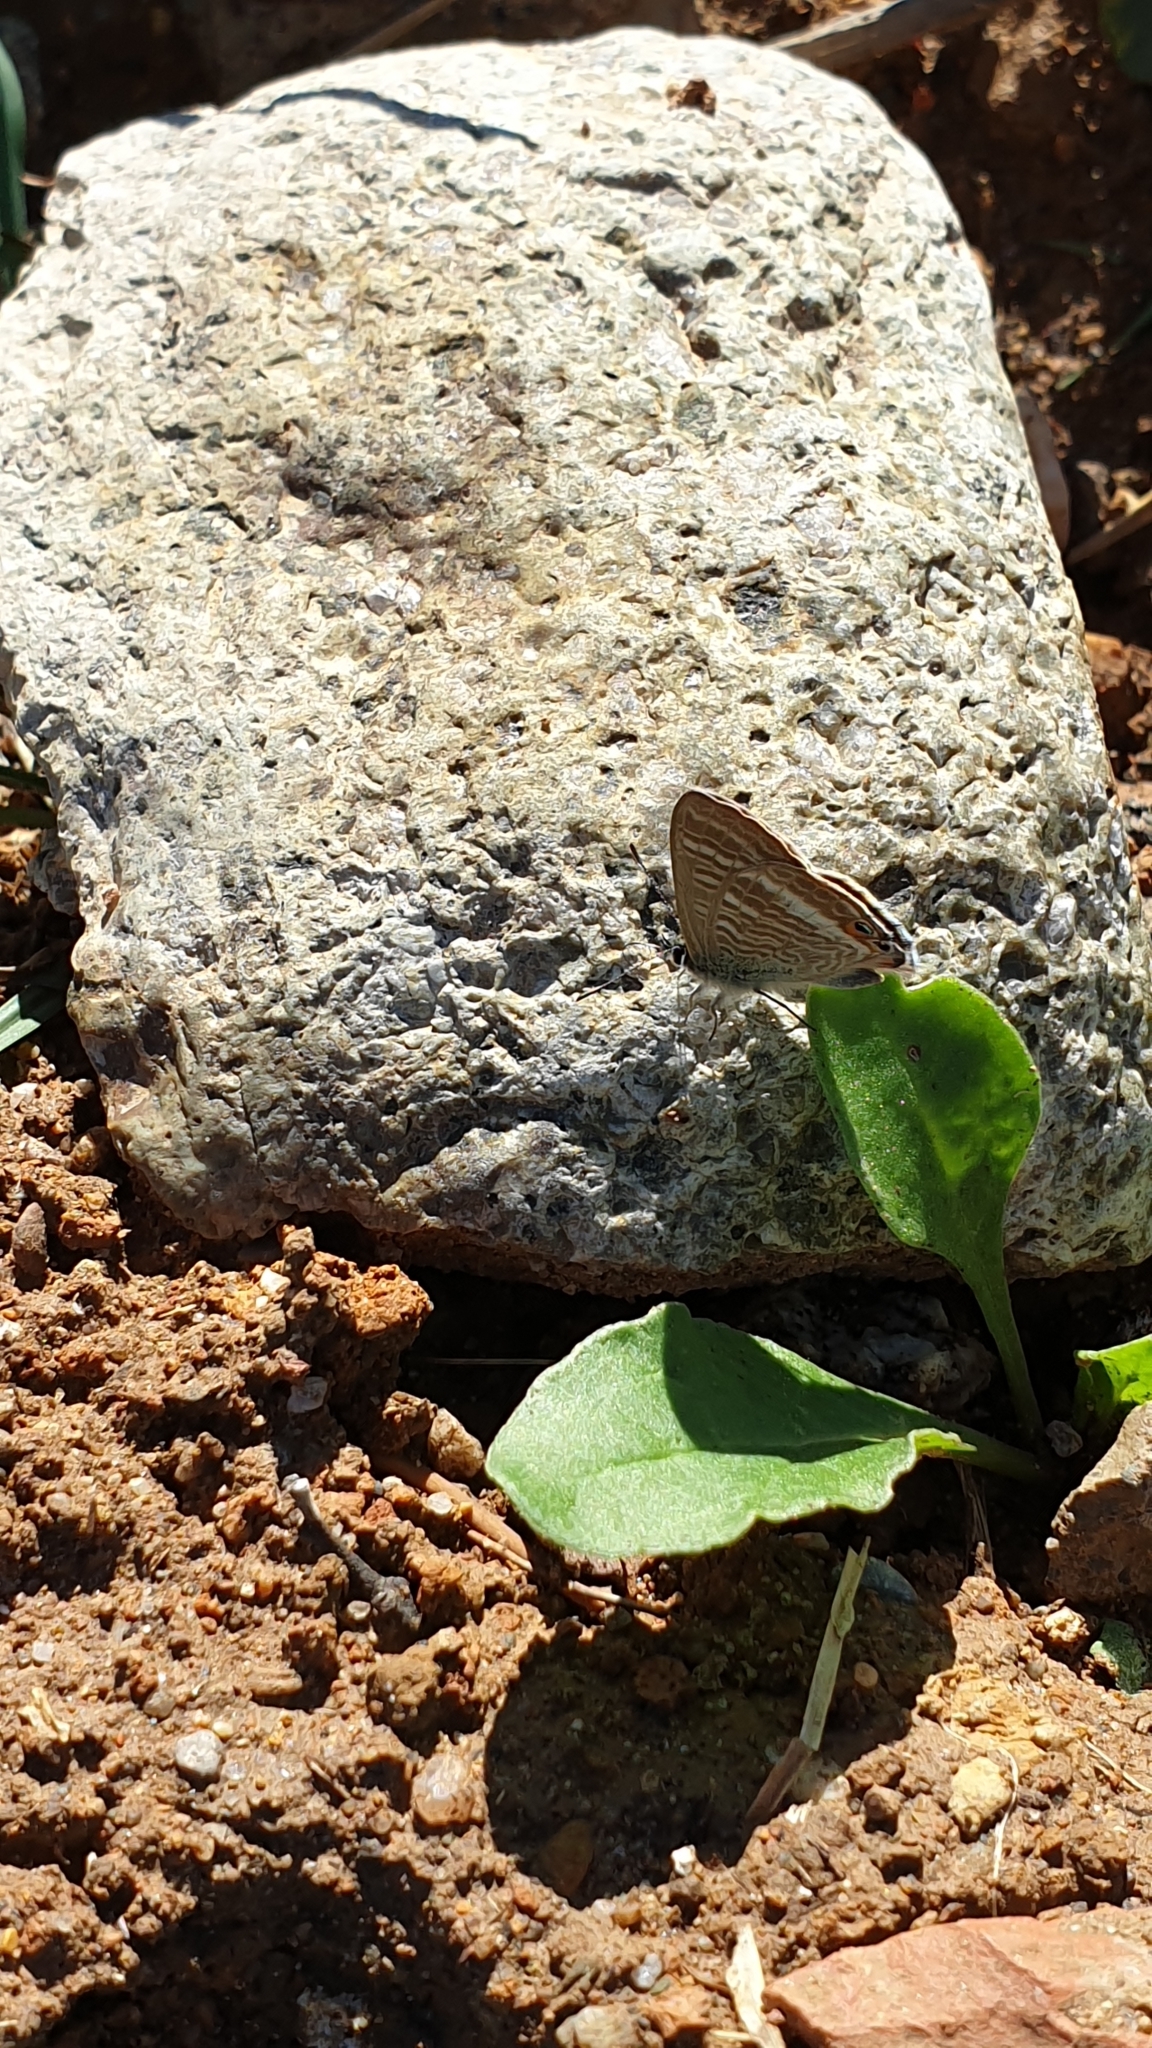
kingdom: Animalia
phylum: Arthropoda
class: Insecta
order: Lepidoptera
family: Lycaenidae
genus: Lampides
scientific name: Lampides boeticus
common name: Long-tailed blue
